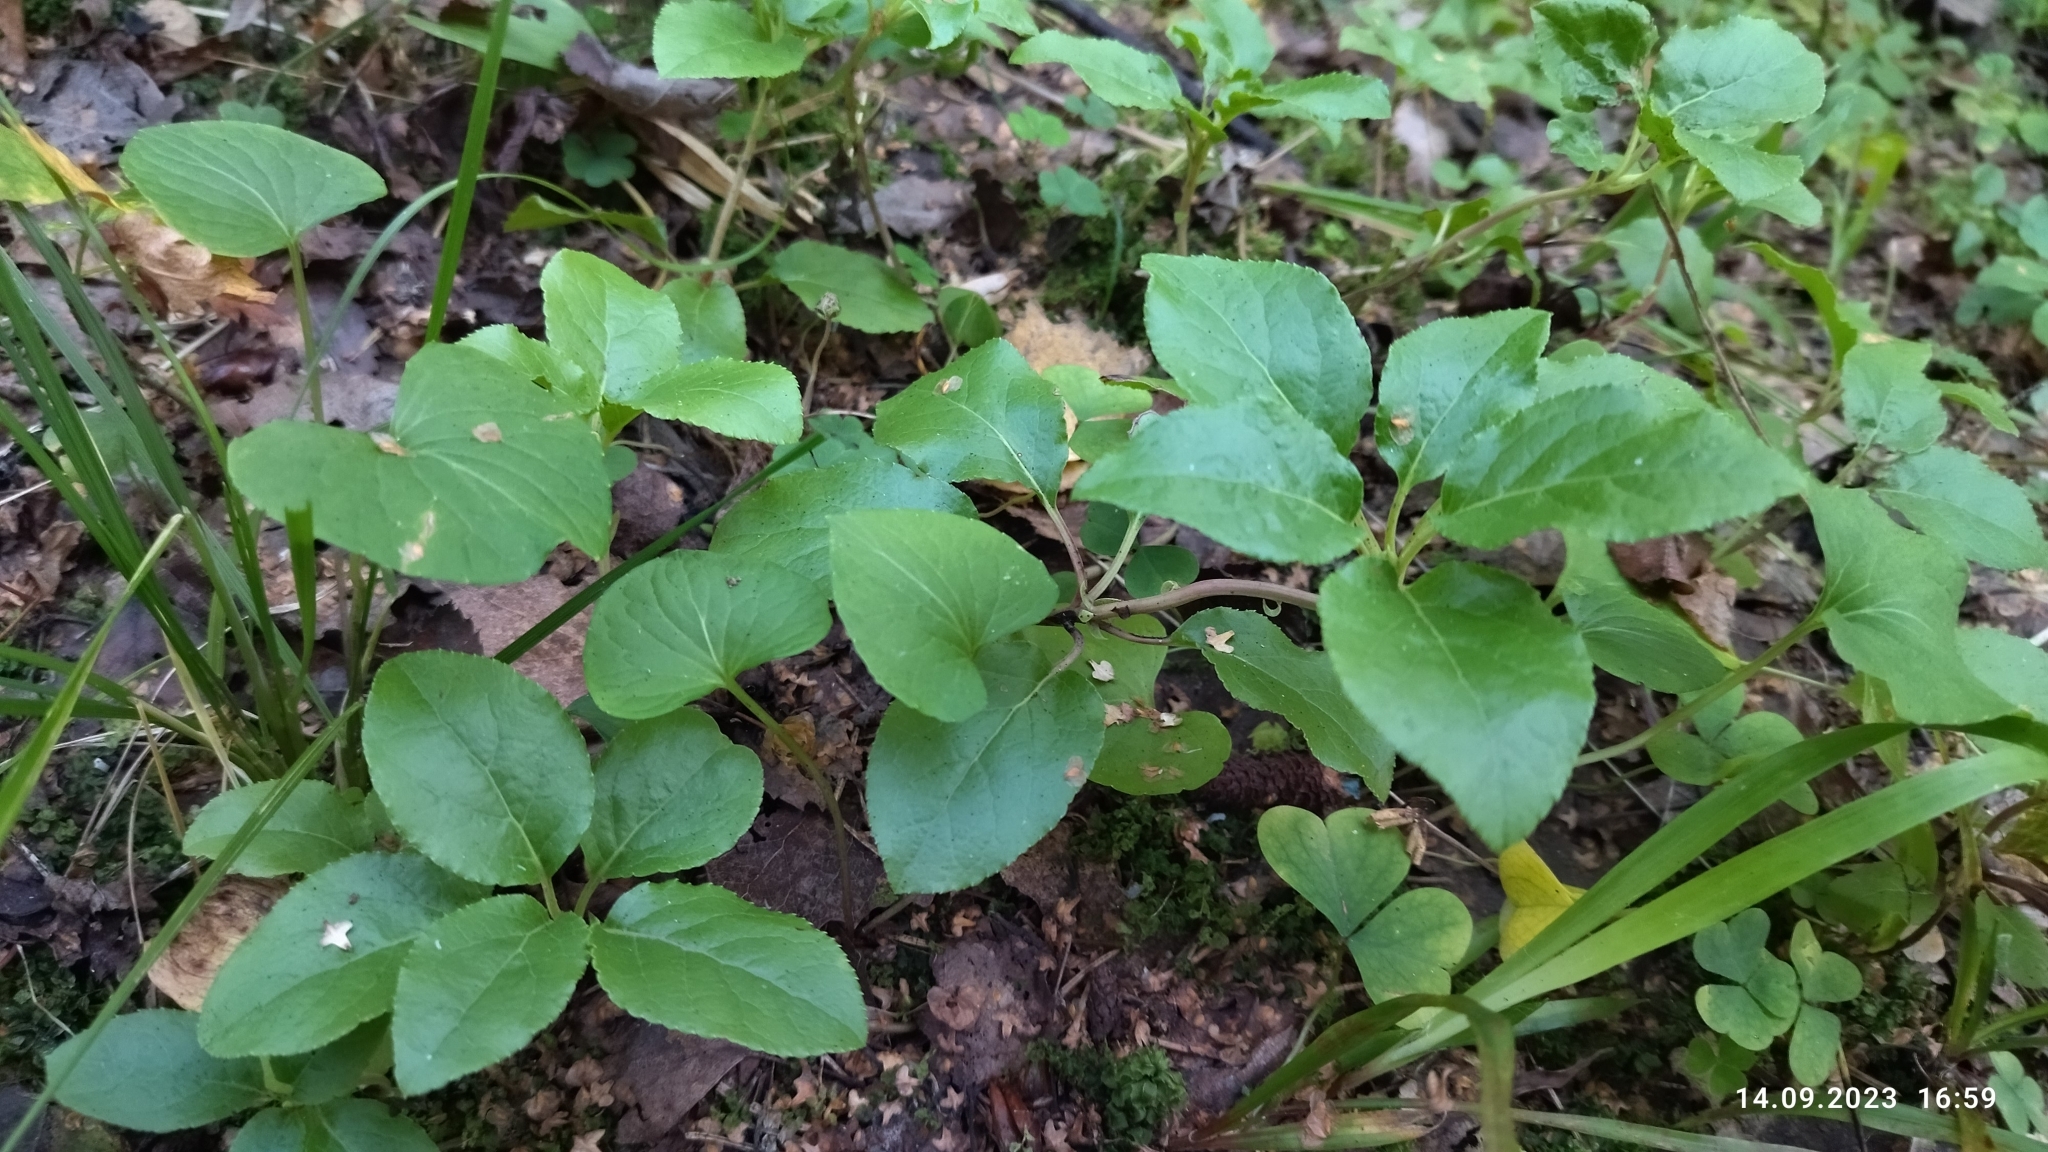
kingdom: Plantae
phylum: Tracheophyta
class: Magnoliopsida
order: Ericales
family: Ericaceae
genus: Orthilia
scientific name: Orthilia secunda
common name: One-sided orthilia
